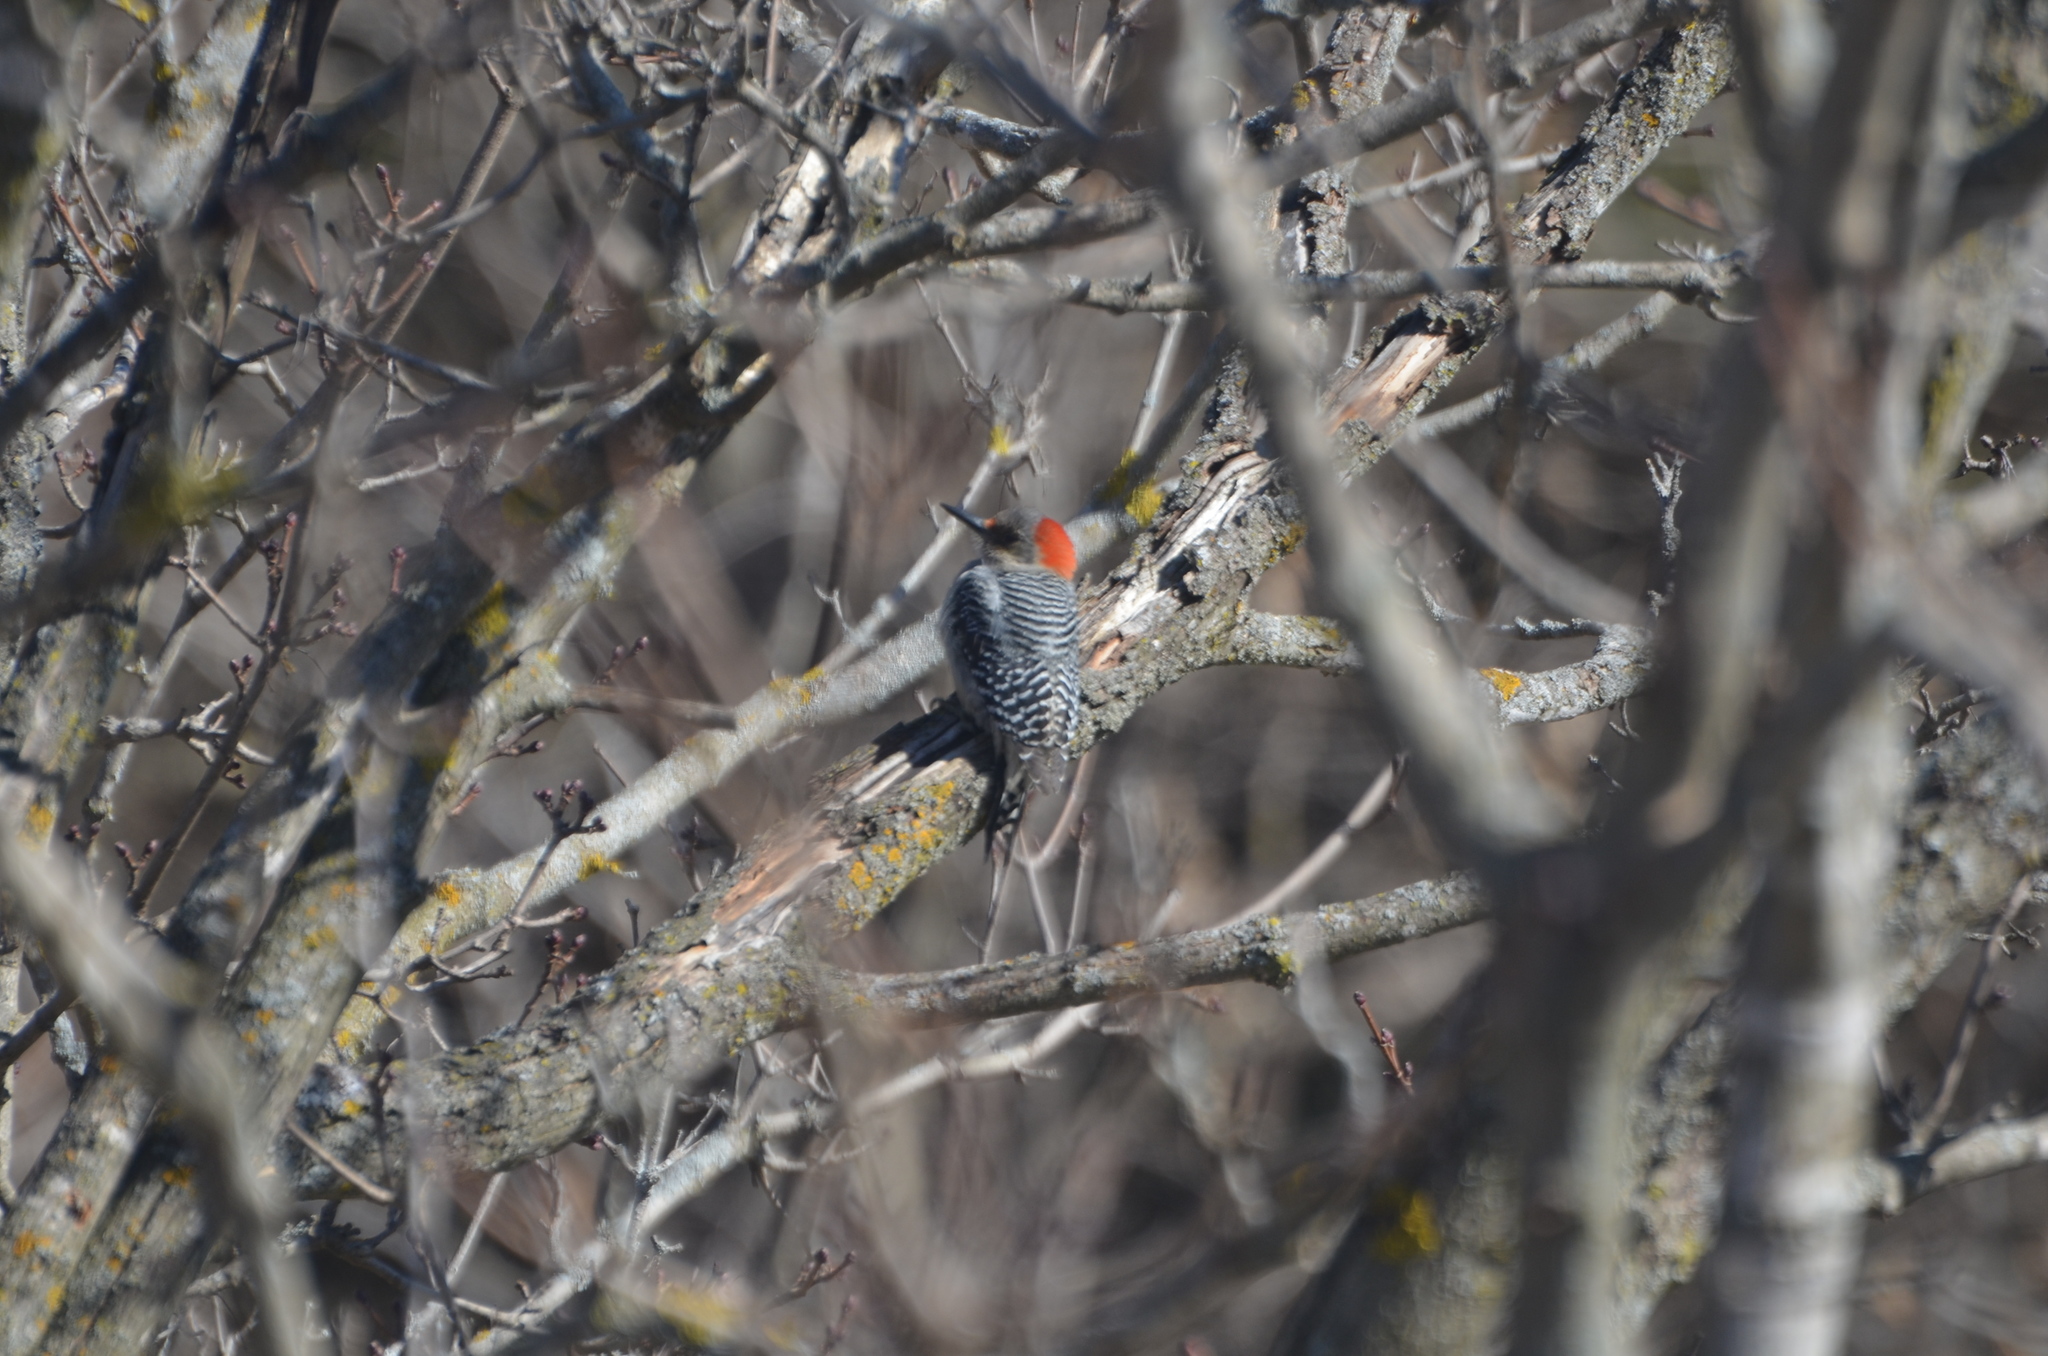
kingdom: Animalia
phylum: Chordata
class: Aves
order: Piciformes
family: Picidae
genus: Melanerpes
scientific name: Melanerpes carolinus
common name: Red-bellied woodpecker
